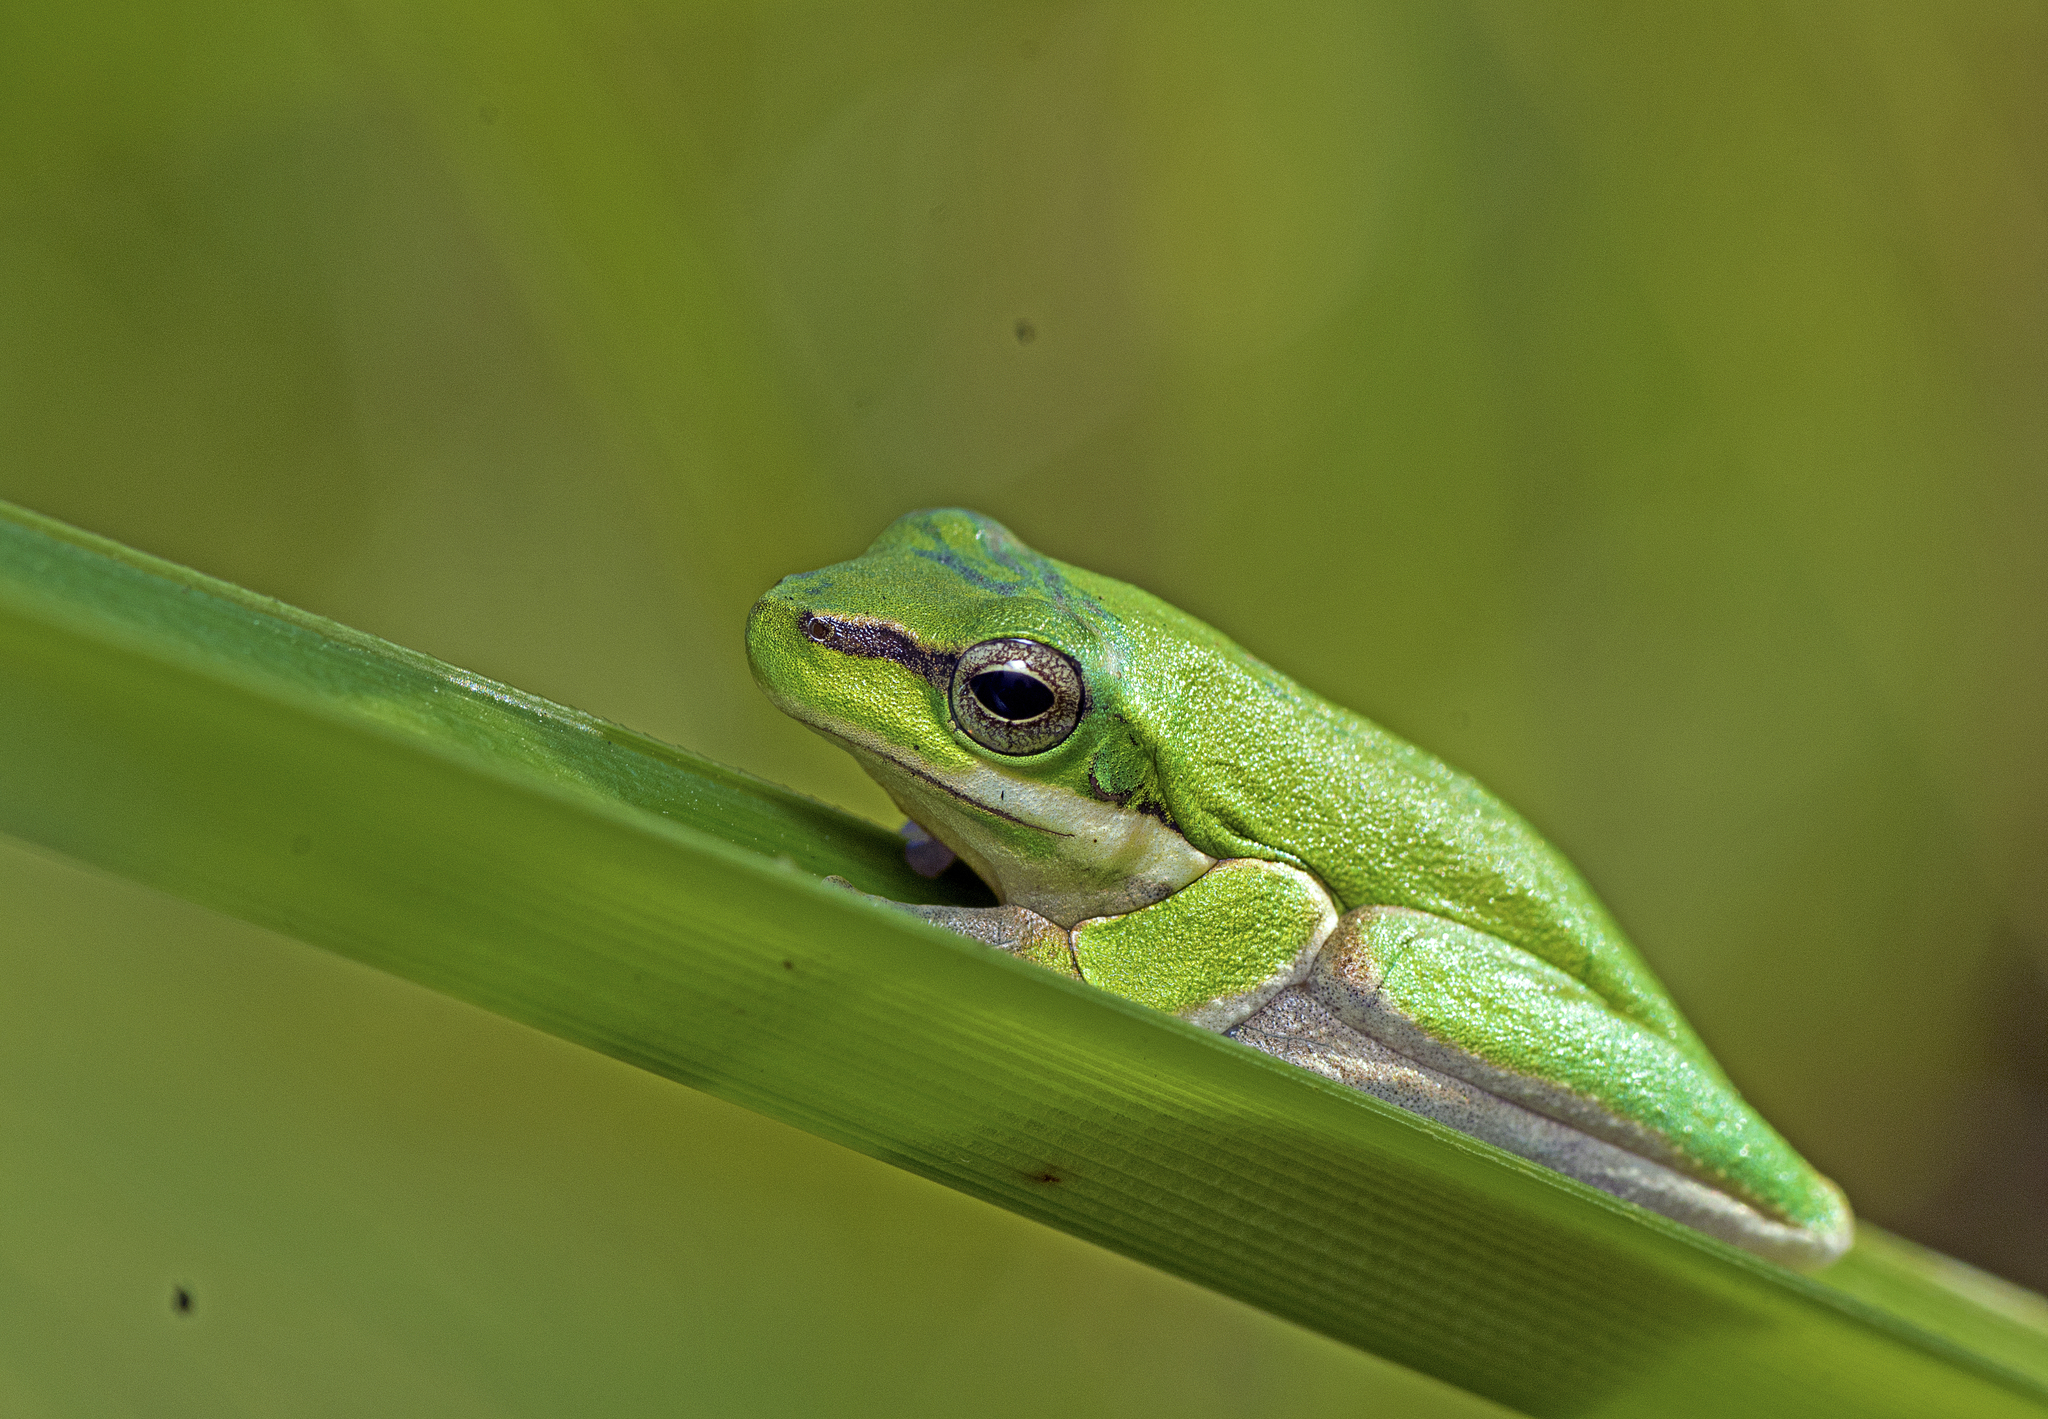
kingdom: Animalia
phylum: Chordata
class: Amphibia
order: Anura
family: Pelodryadidae
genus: Litoria
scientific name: Litoria fallax
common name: Eastern dwarf treefrog
